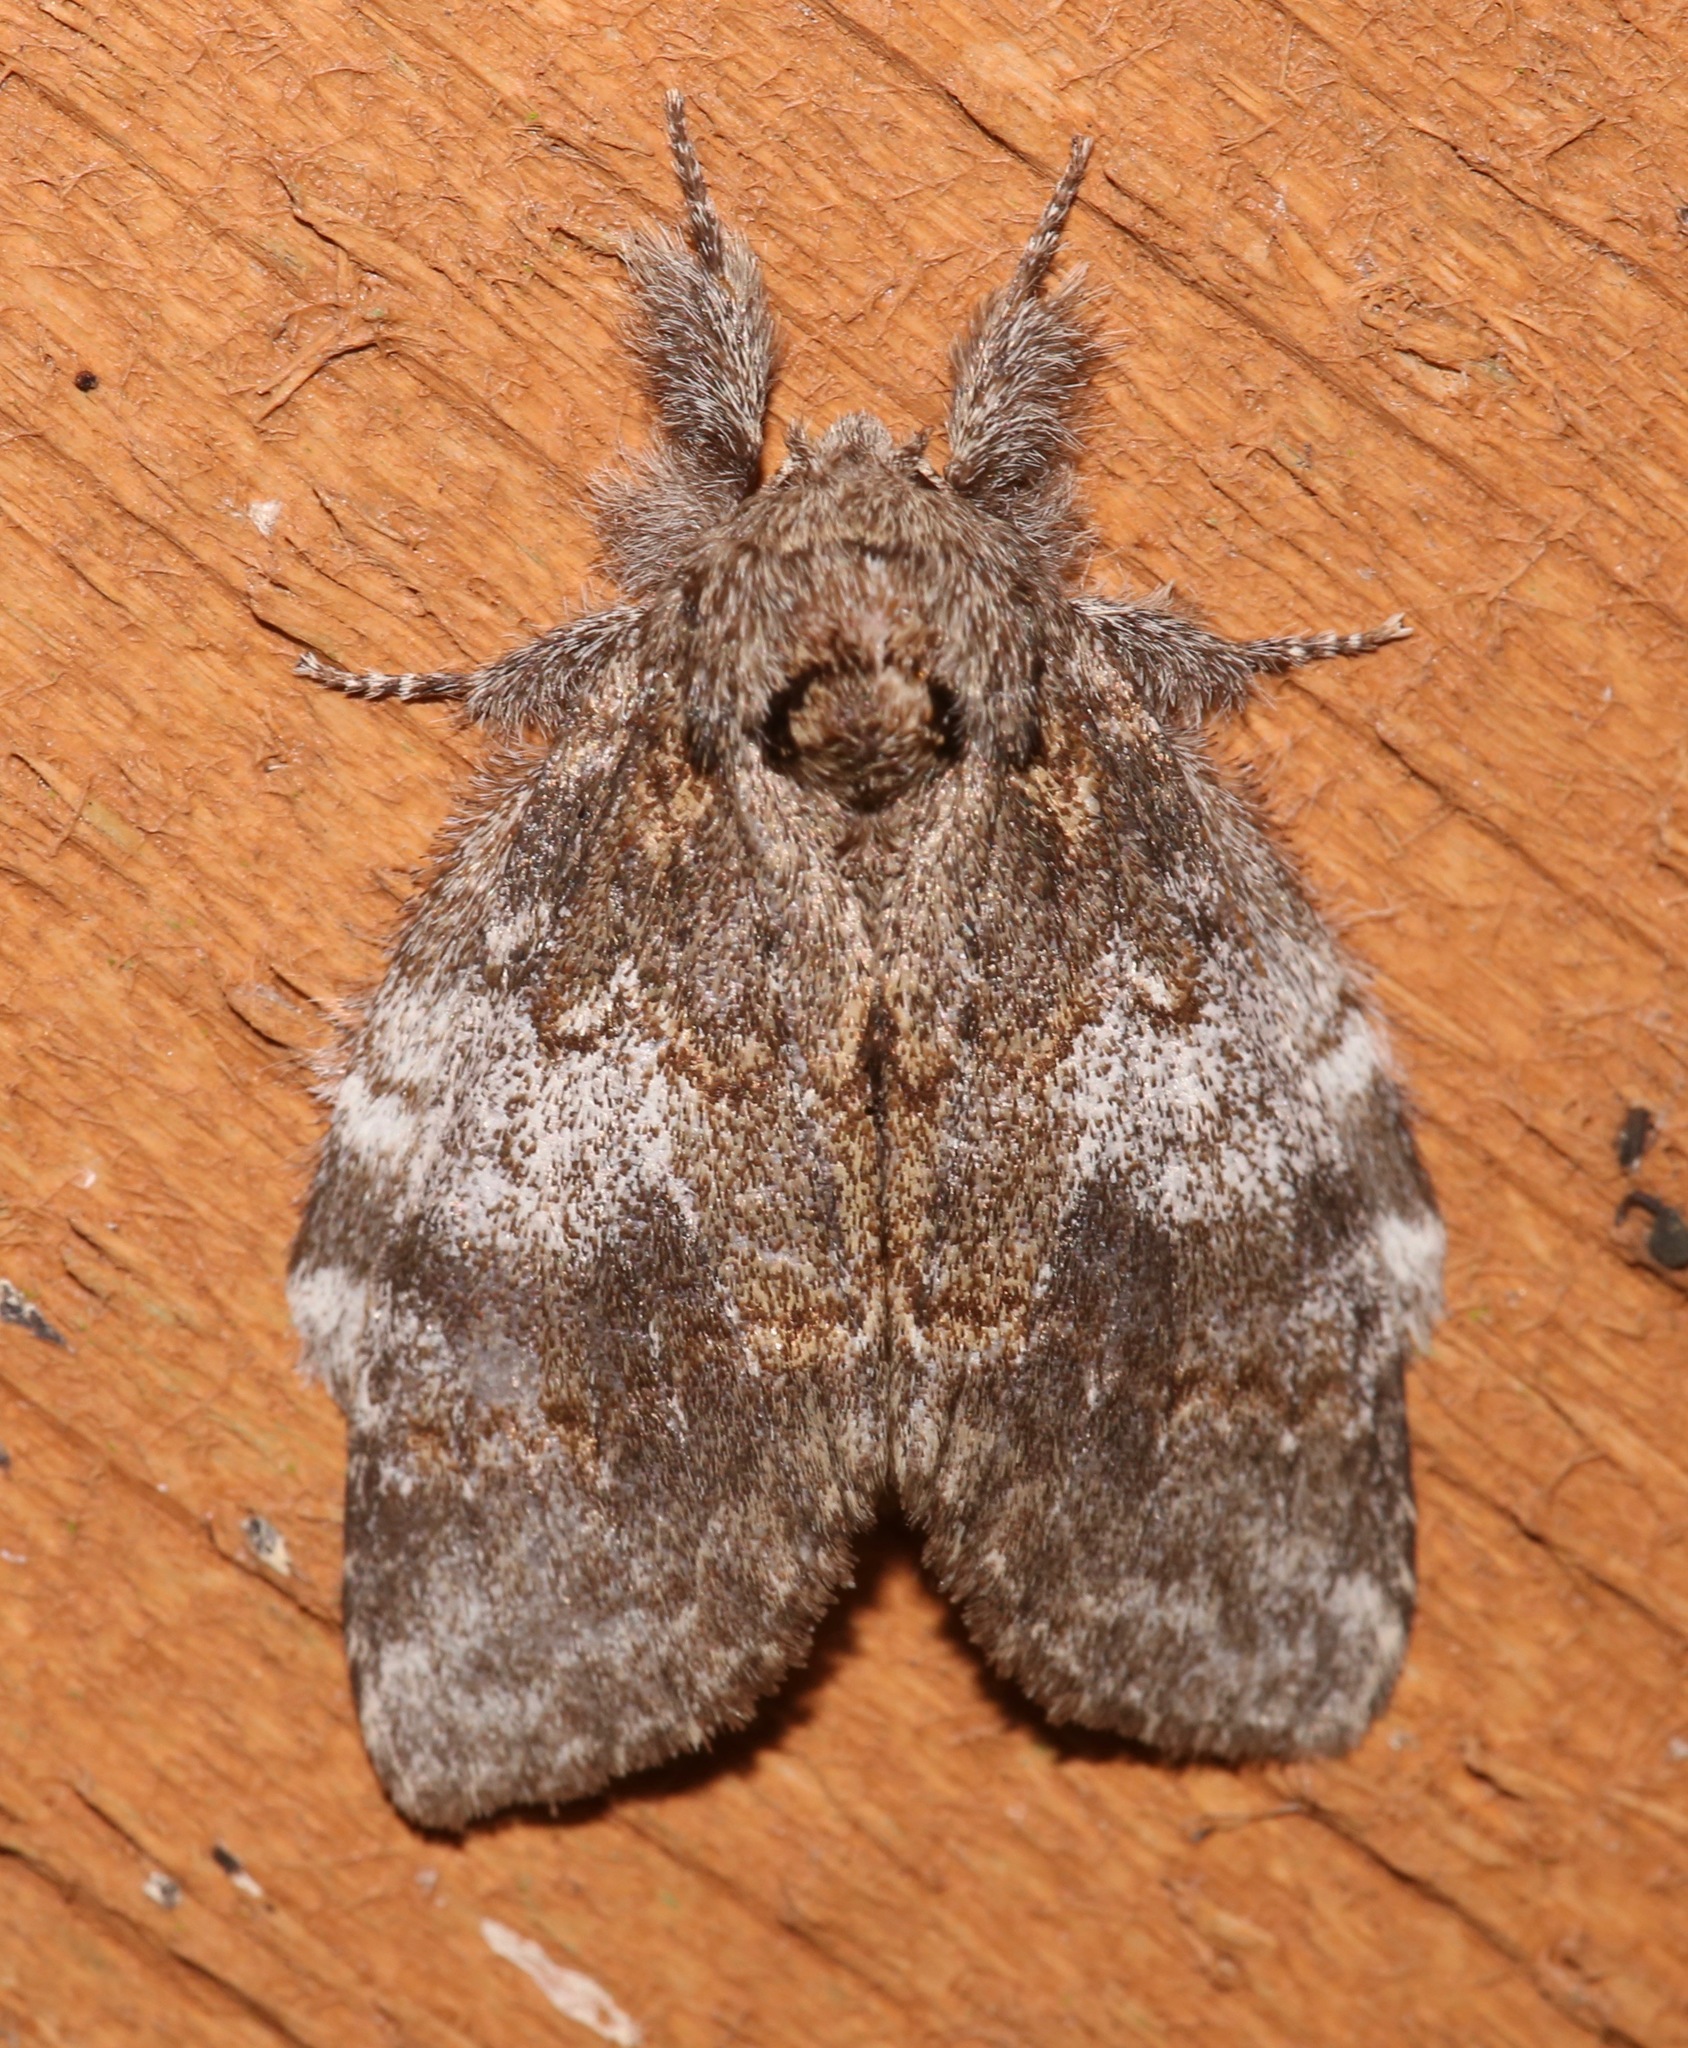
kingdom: Animalia
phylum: Arthropoda
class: Insecta
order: Lepidoptera
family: Notodontidae
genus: Peridea
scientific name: Peridea angulosa
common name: Angulose prominent
